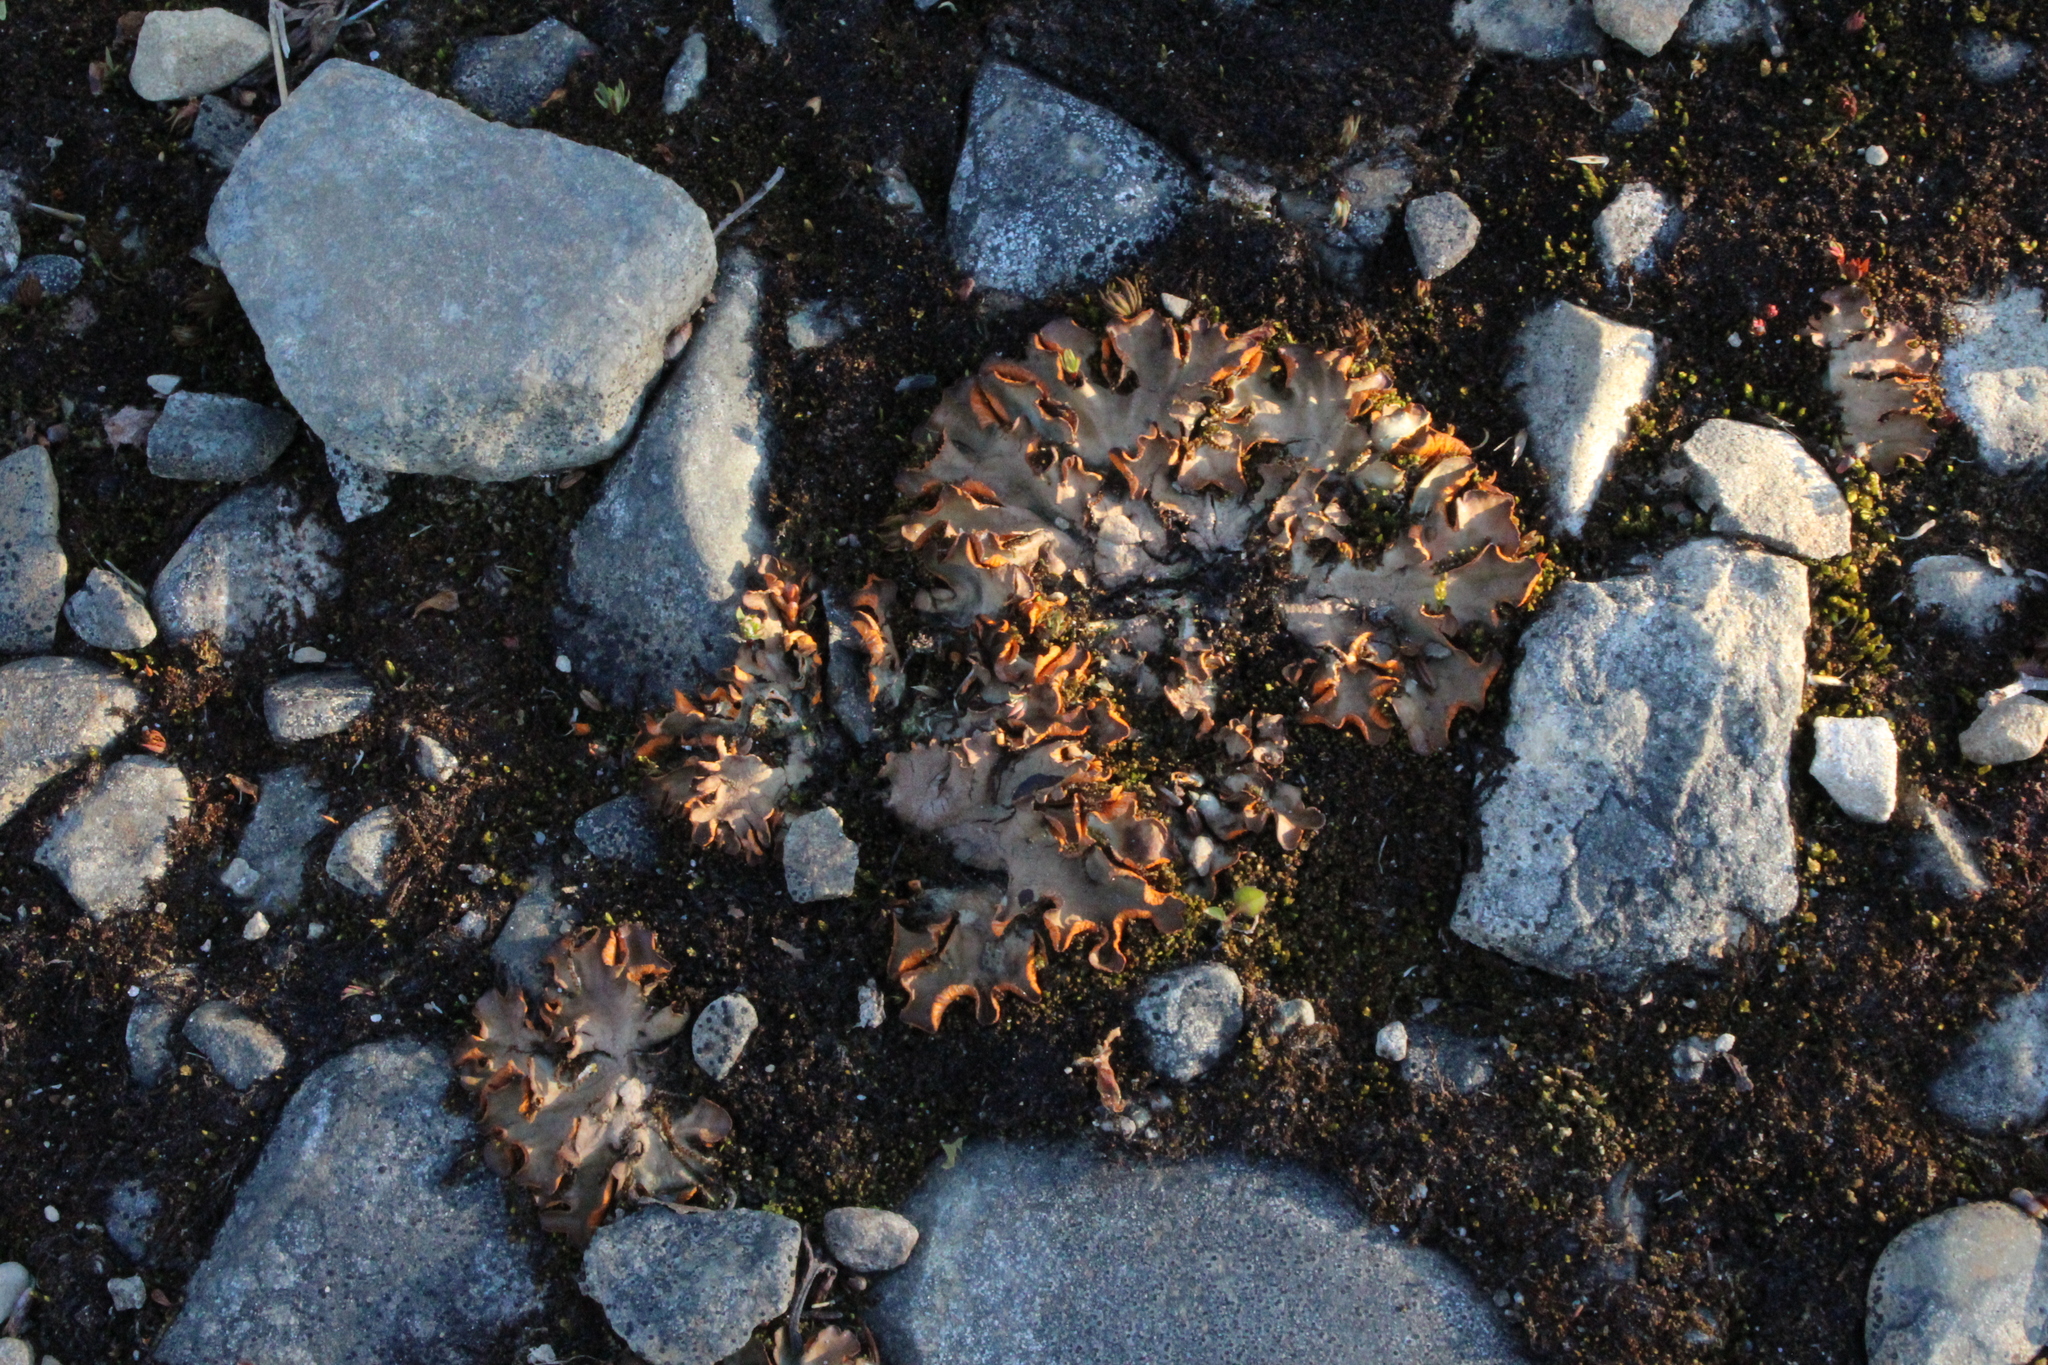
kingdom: Fungi
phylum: Ascomycota
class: Lecanoromycetes
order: Peltigerales
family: Peltigeraceae
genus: Solorina
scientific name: Solorina crocea
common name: Mountain saffron
